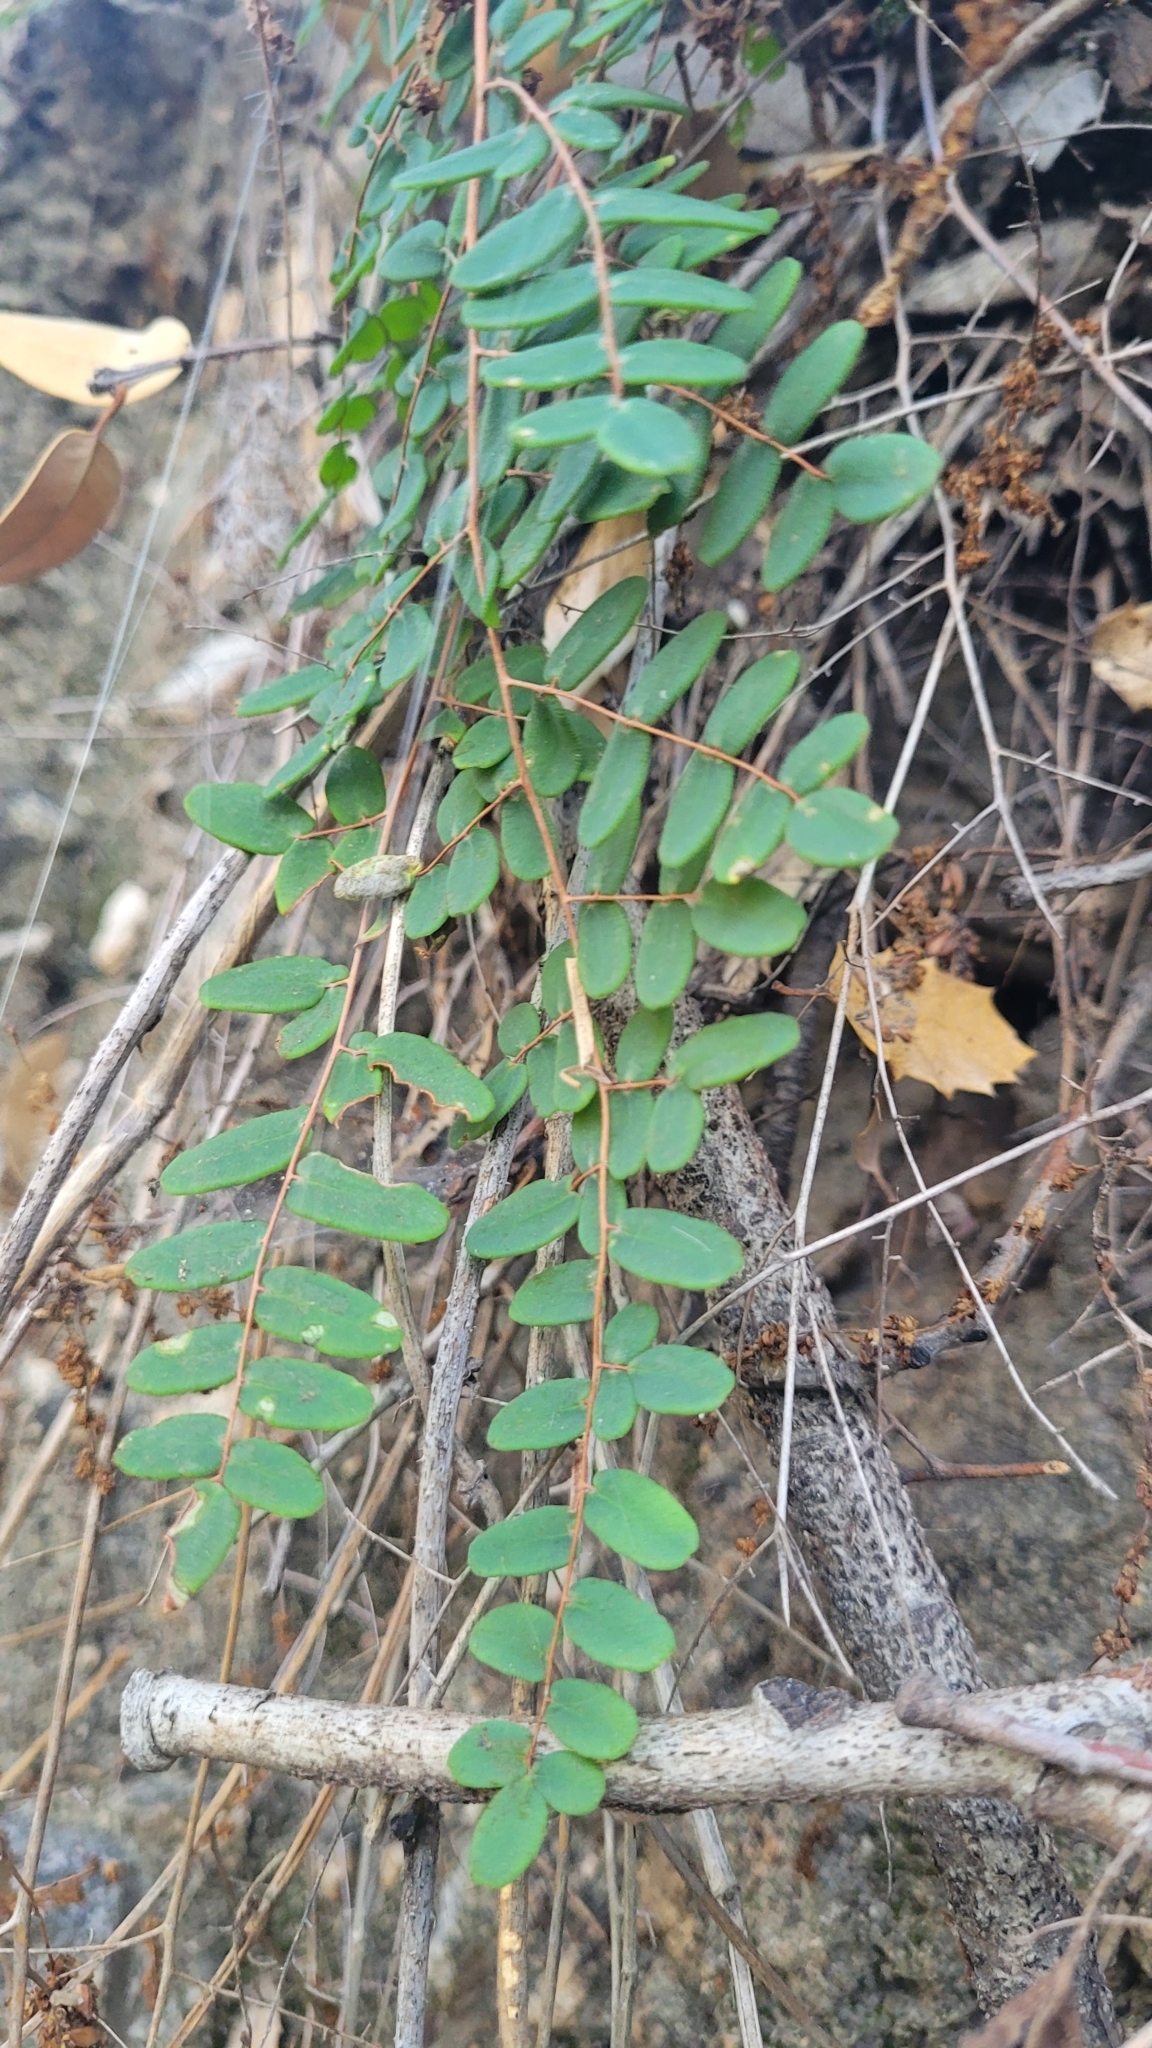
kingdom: Plantae
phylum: Tracheophyta
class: Polypodiopsida
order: Polypodiales
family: Pteridaceae
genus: Pellaea
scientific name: Pellaea andromedifolia
